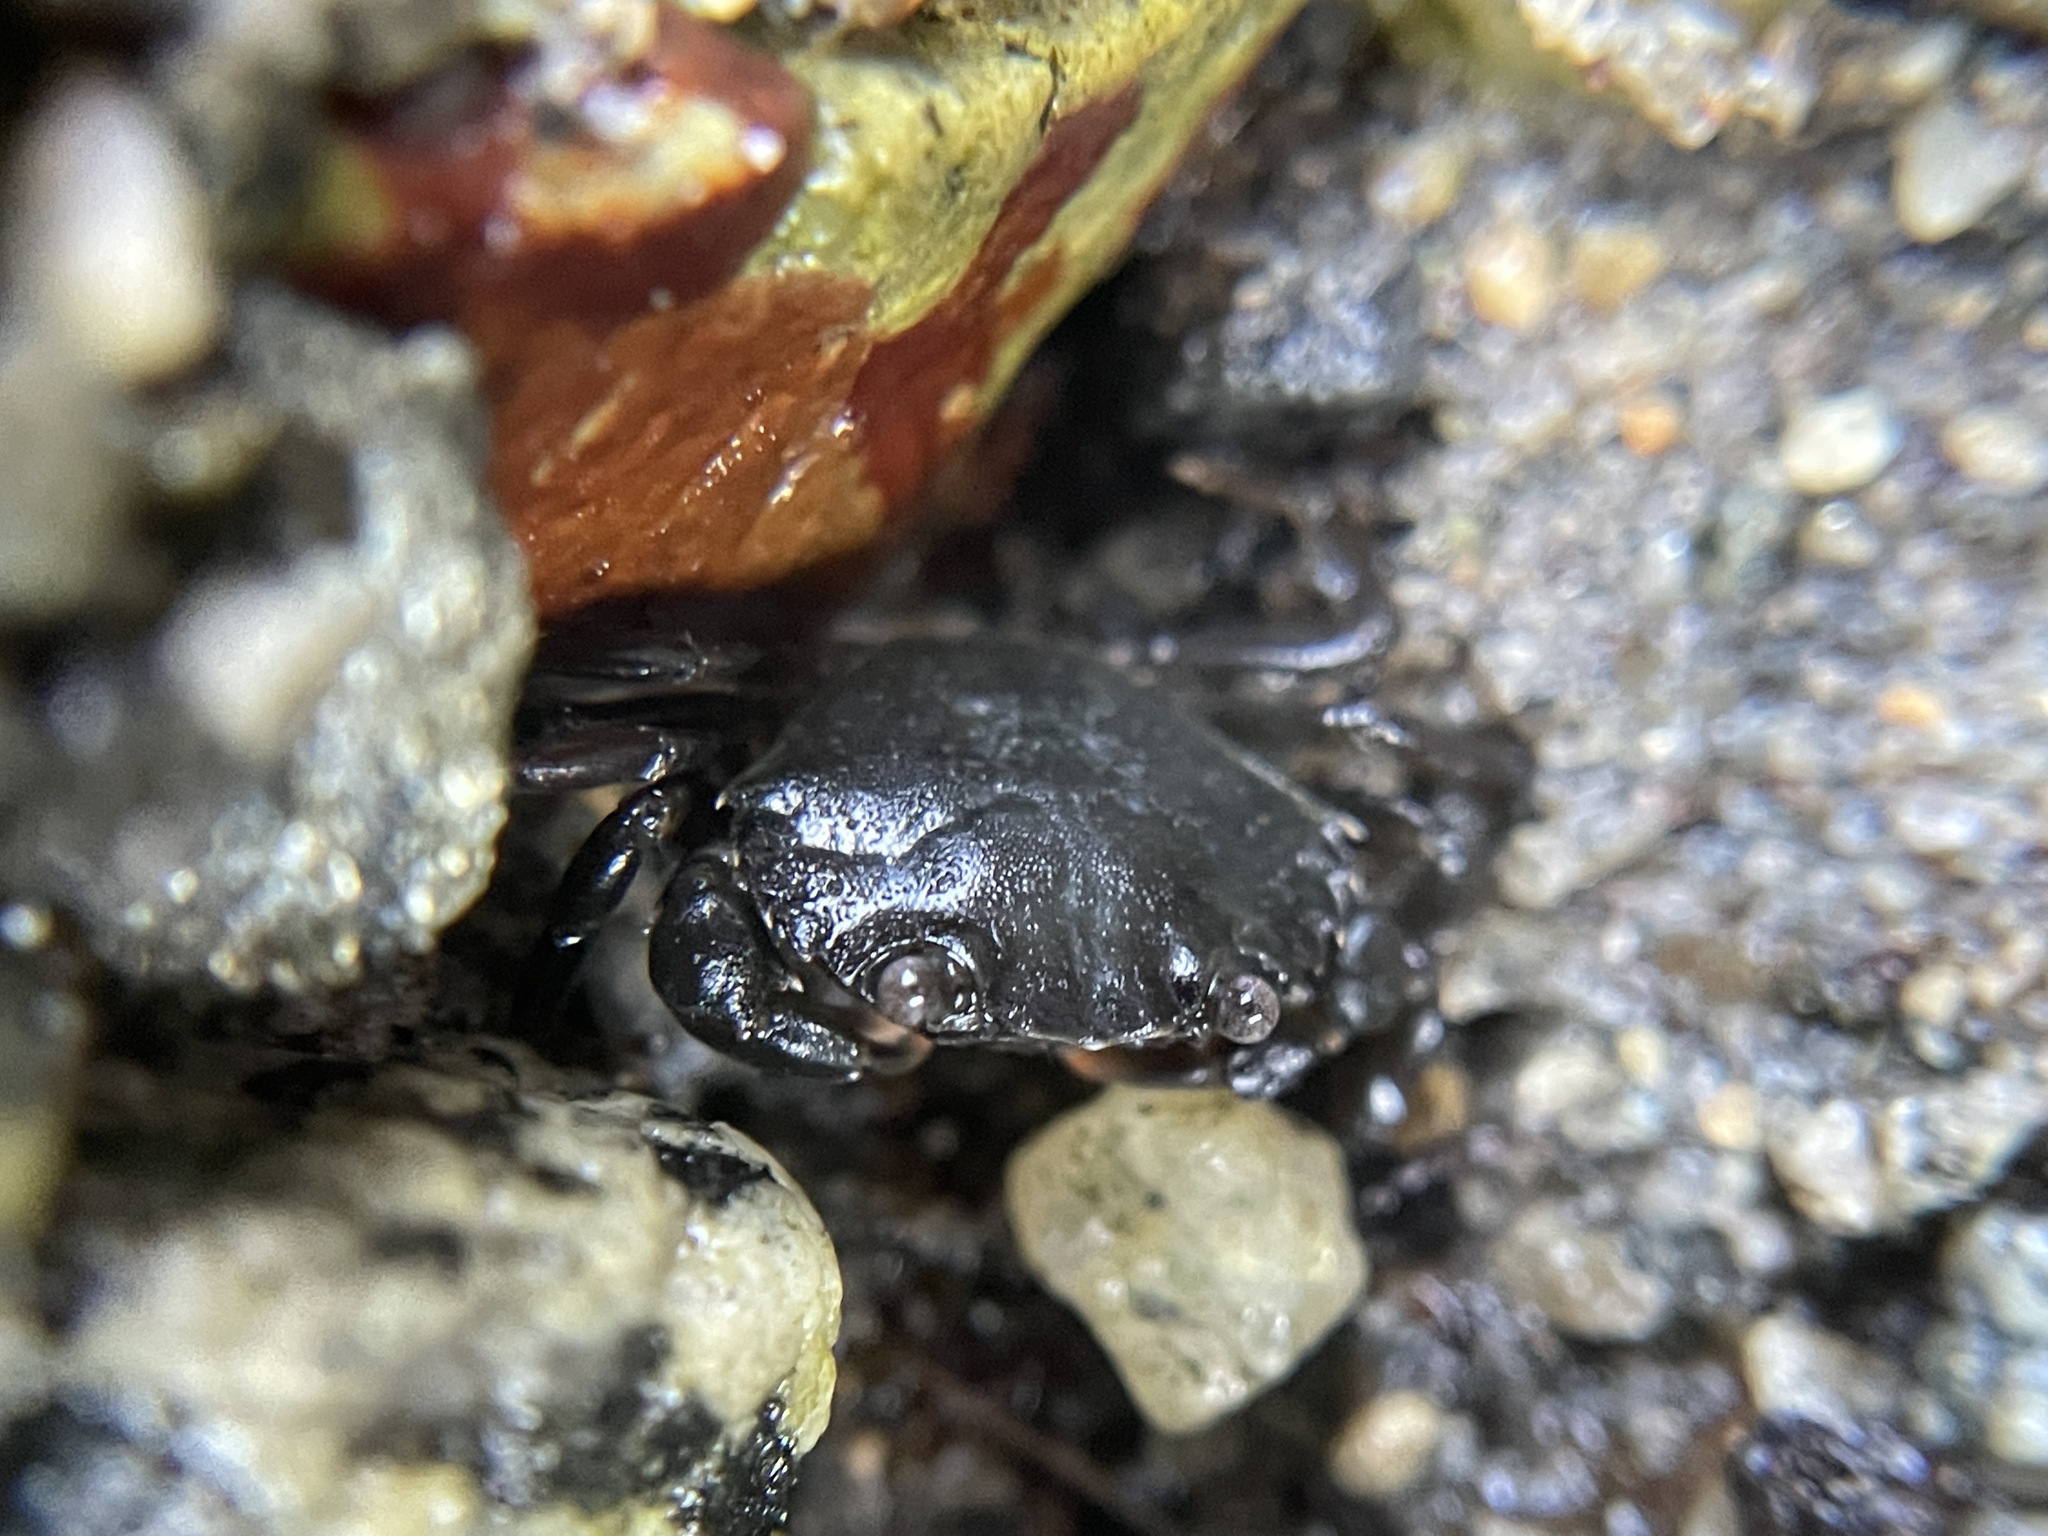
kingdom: Animalia
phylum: Arthropoda
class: Malacostraca
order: Decapoda
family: Carcinidae
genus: Carcinus
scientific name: Carcinus maenas
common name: European green crab
